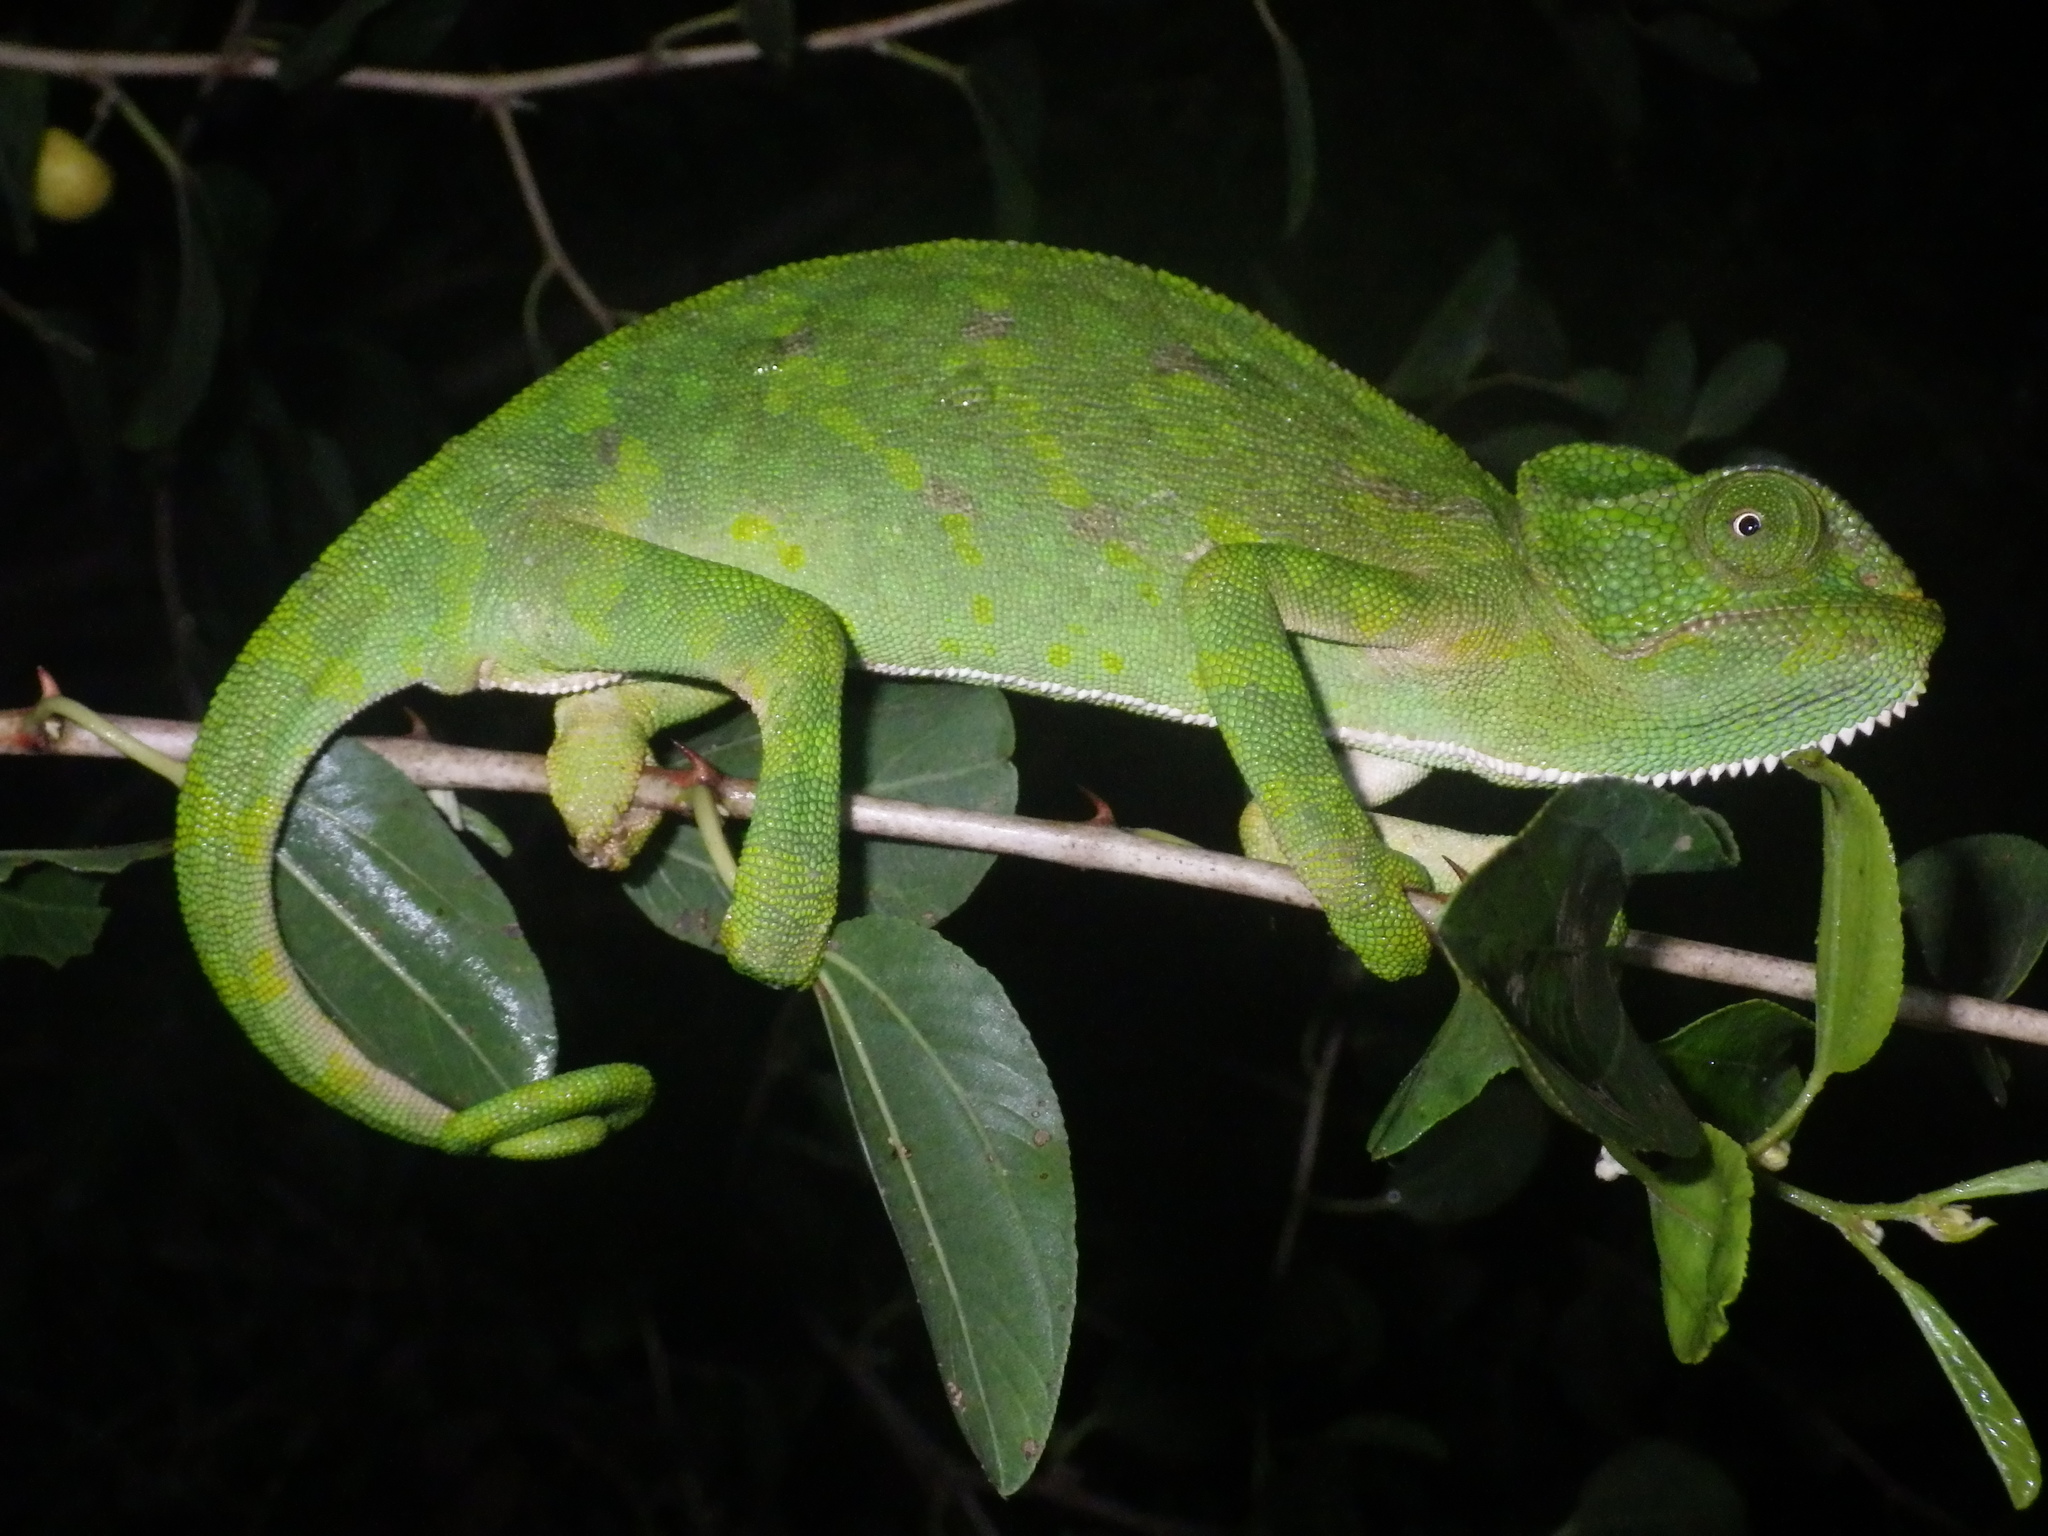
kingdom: Animalia
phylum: Chordata
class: Squamata
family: Chamaeleonidae
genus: Chamaeleo
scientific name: Chamaeleo chamaeleon
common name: Mediterranean chameleon
